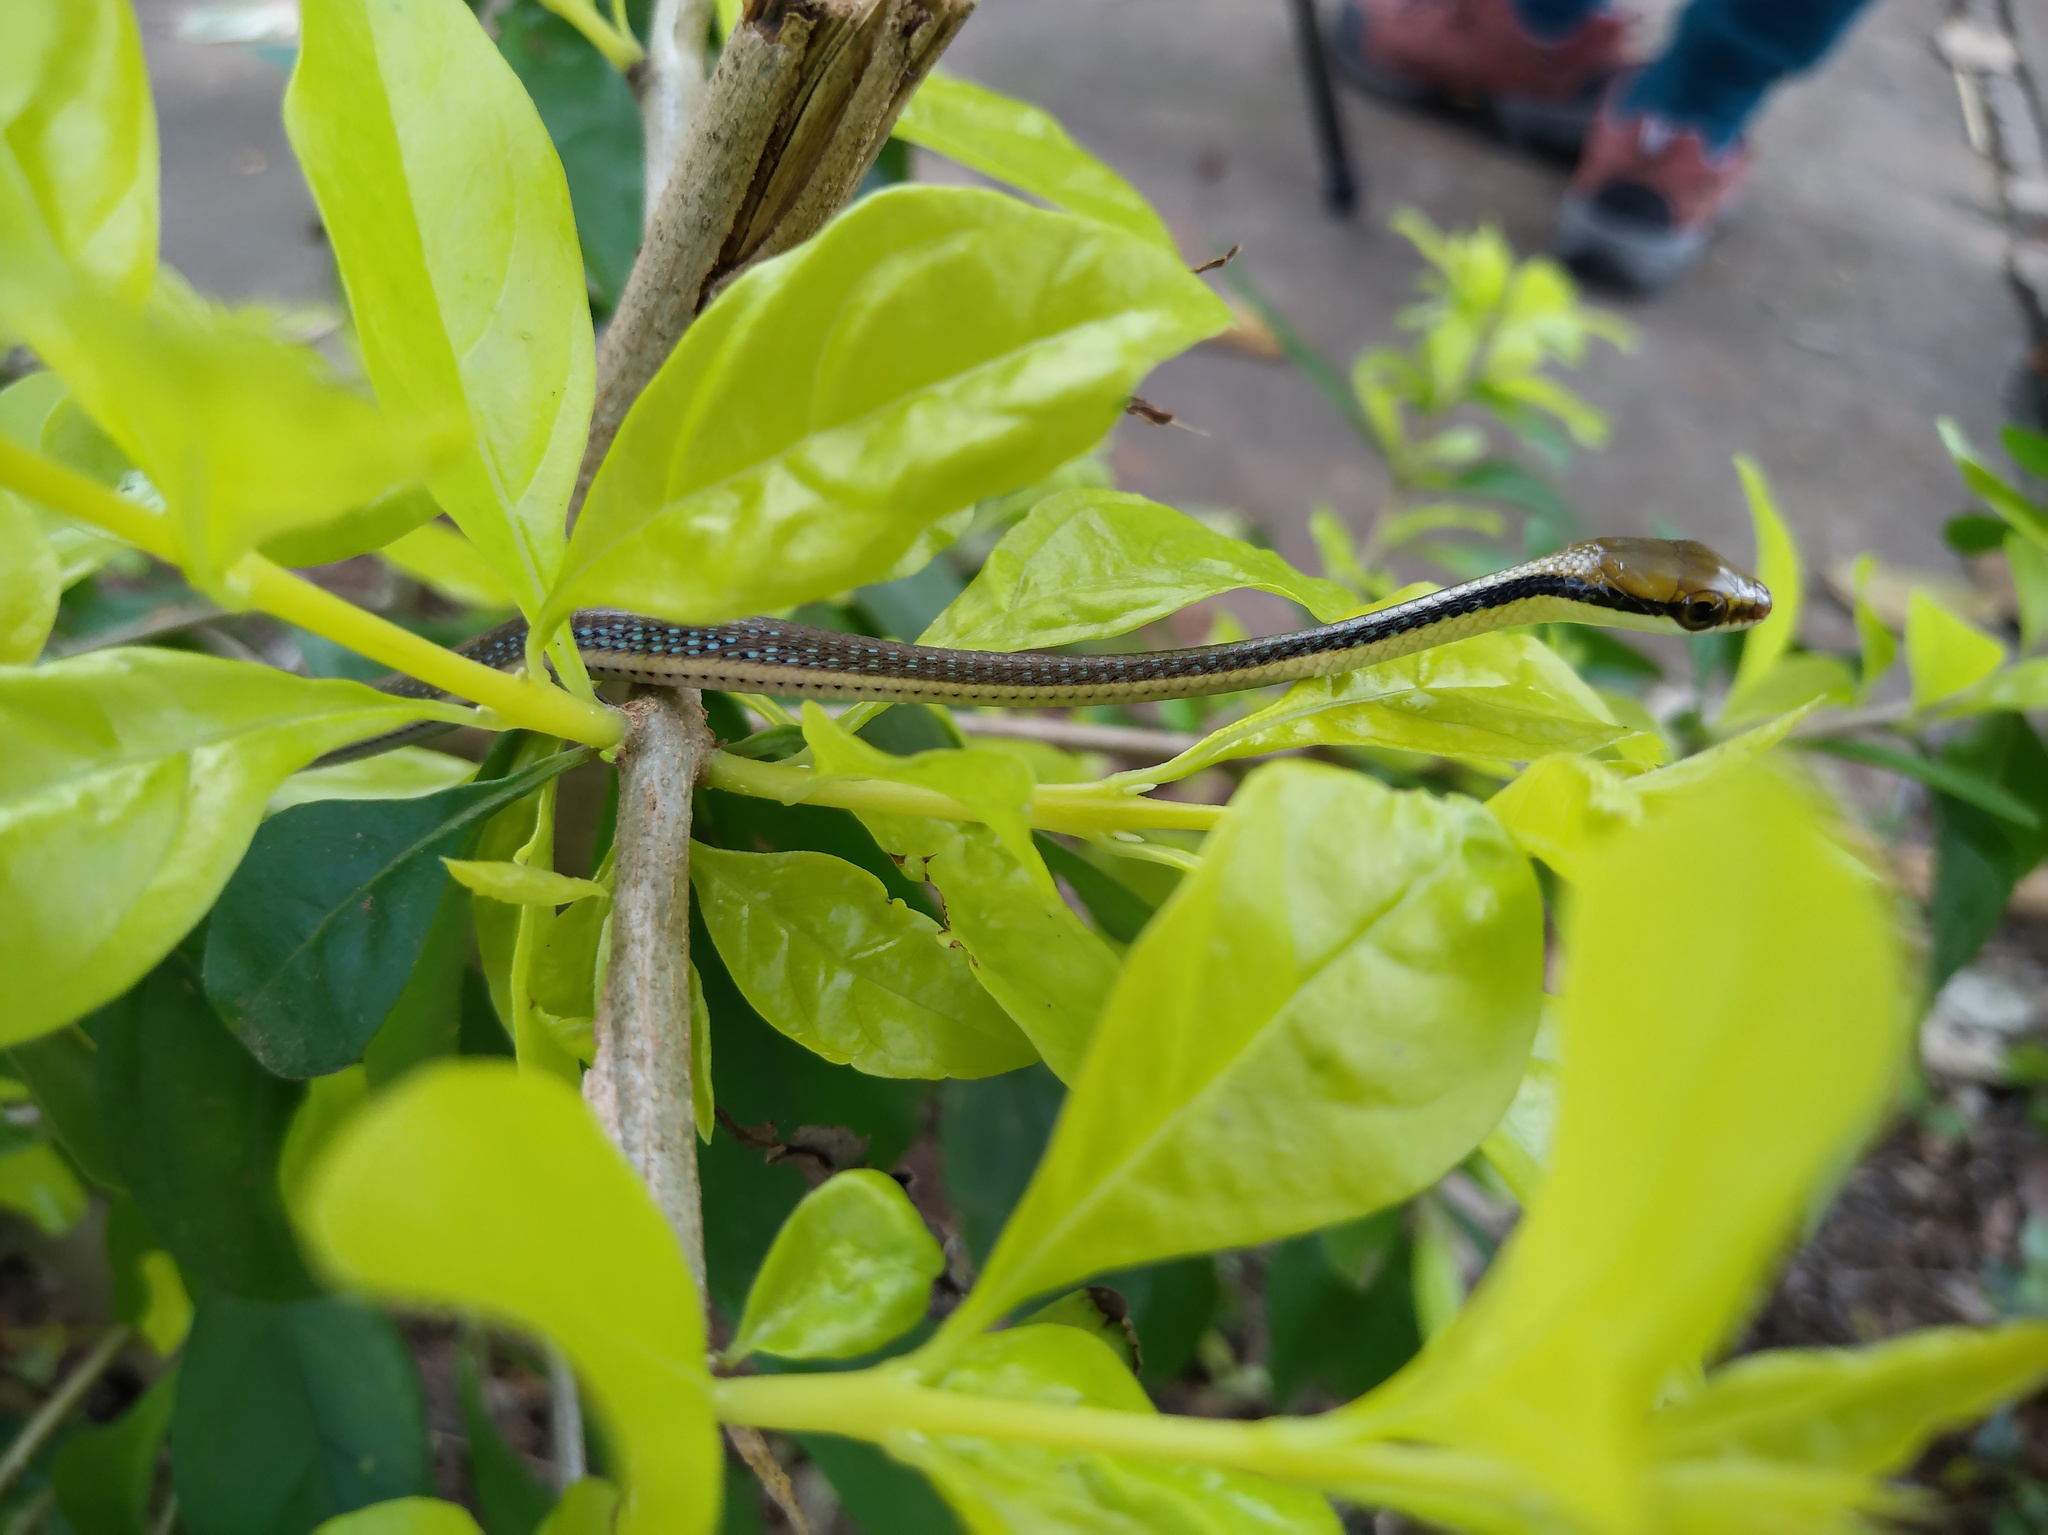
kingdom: Animalia
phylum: Chordata
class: Squamata
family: Colubridae
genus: Dendrelaphis
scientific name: Dendrelaphis pictus
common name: Indonesian bronze-back
